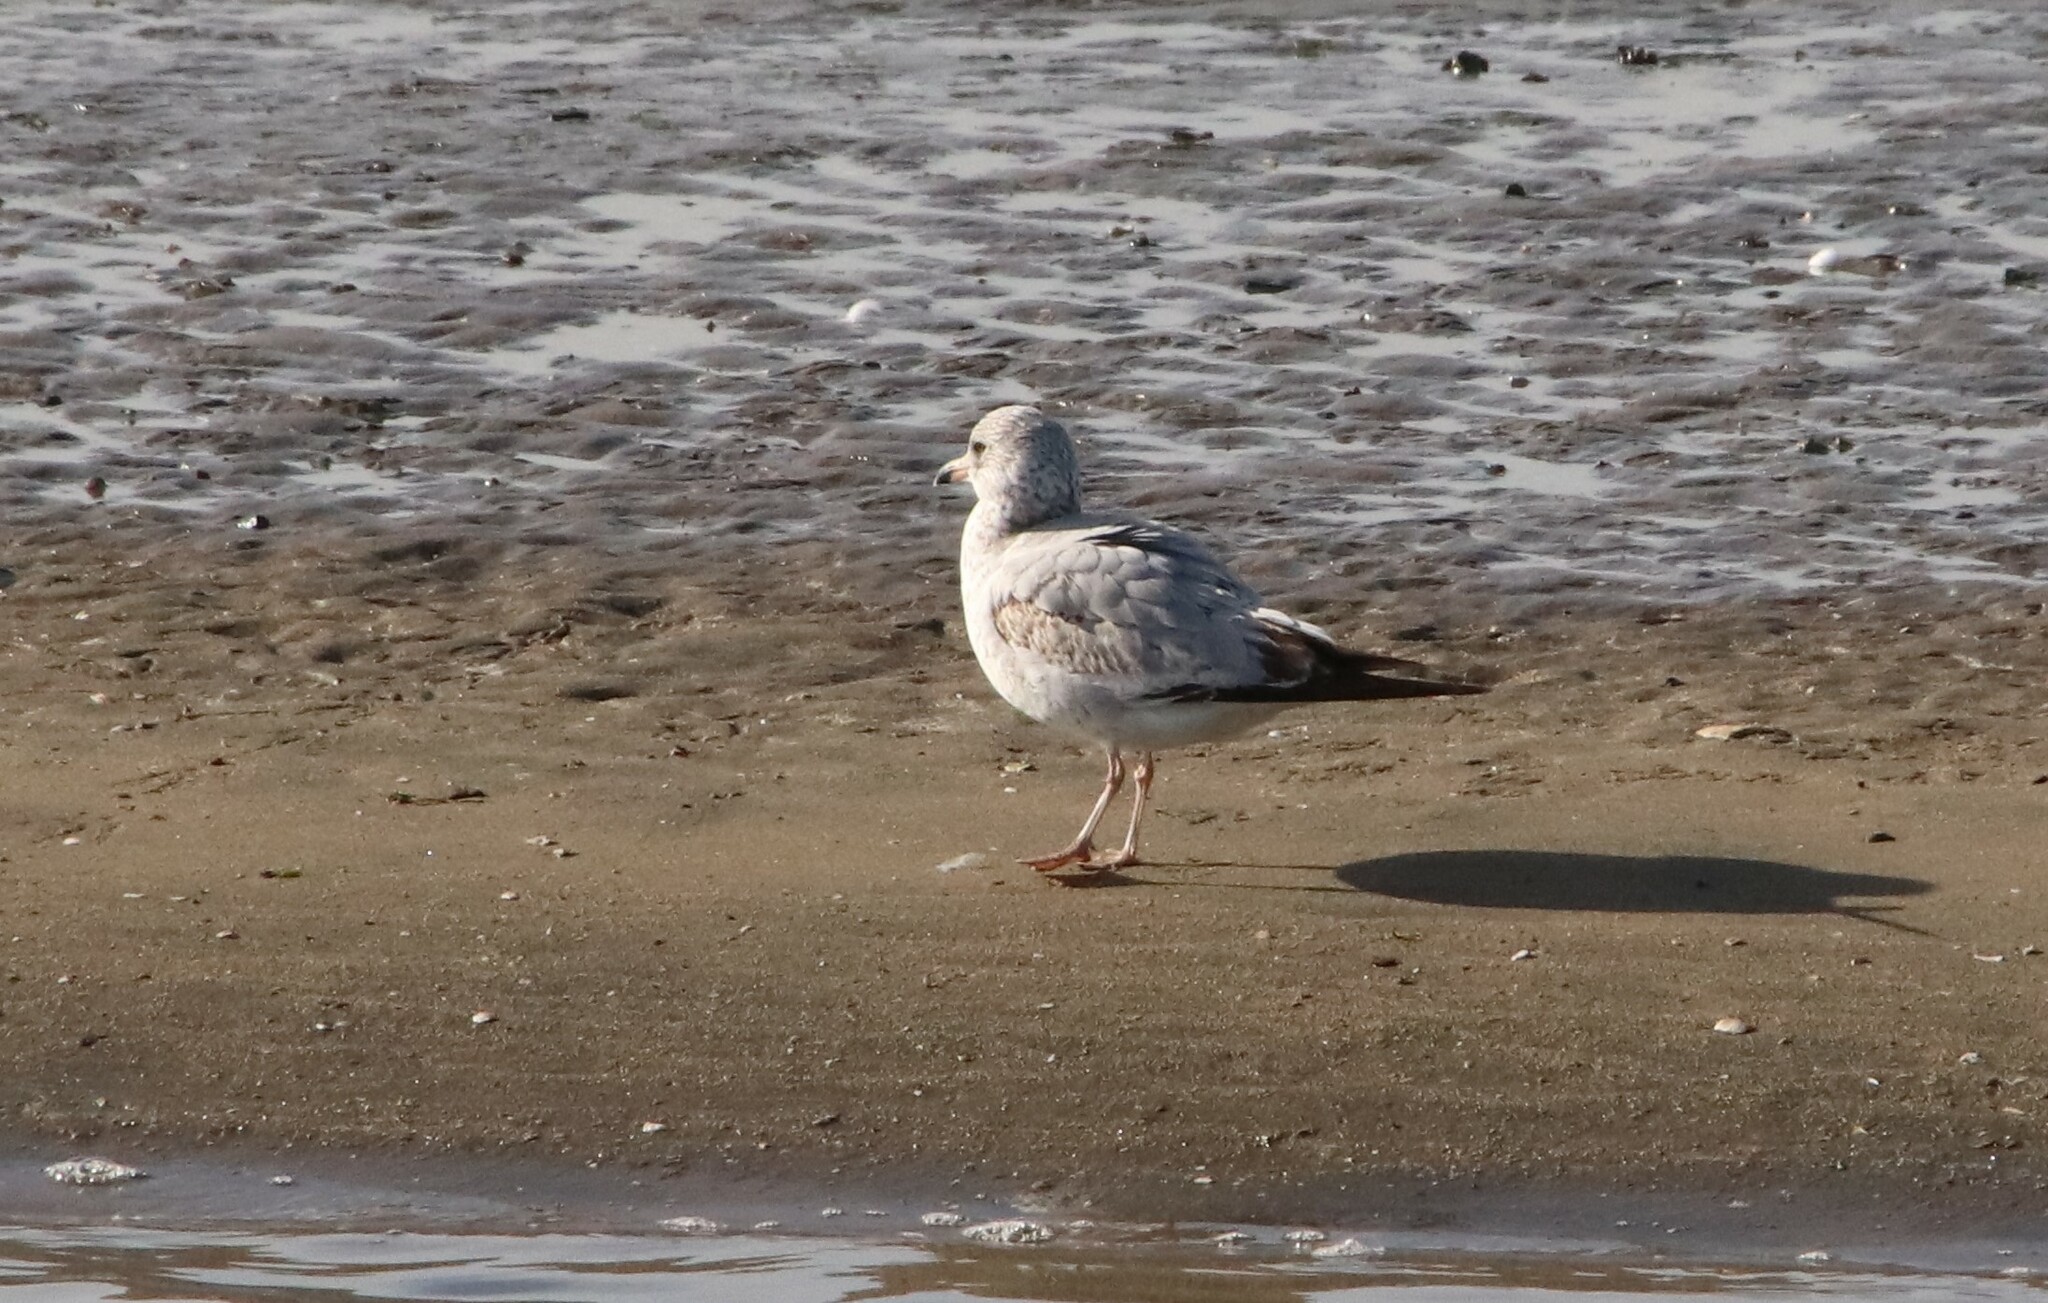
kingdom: Animalia
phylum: Chordata
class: Aves
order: Charadriiformes
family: Laridae
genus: Larus
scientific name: Larus delawarensis
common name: Ring-billed gull
